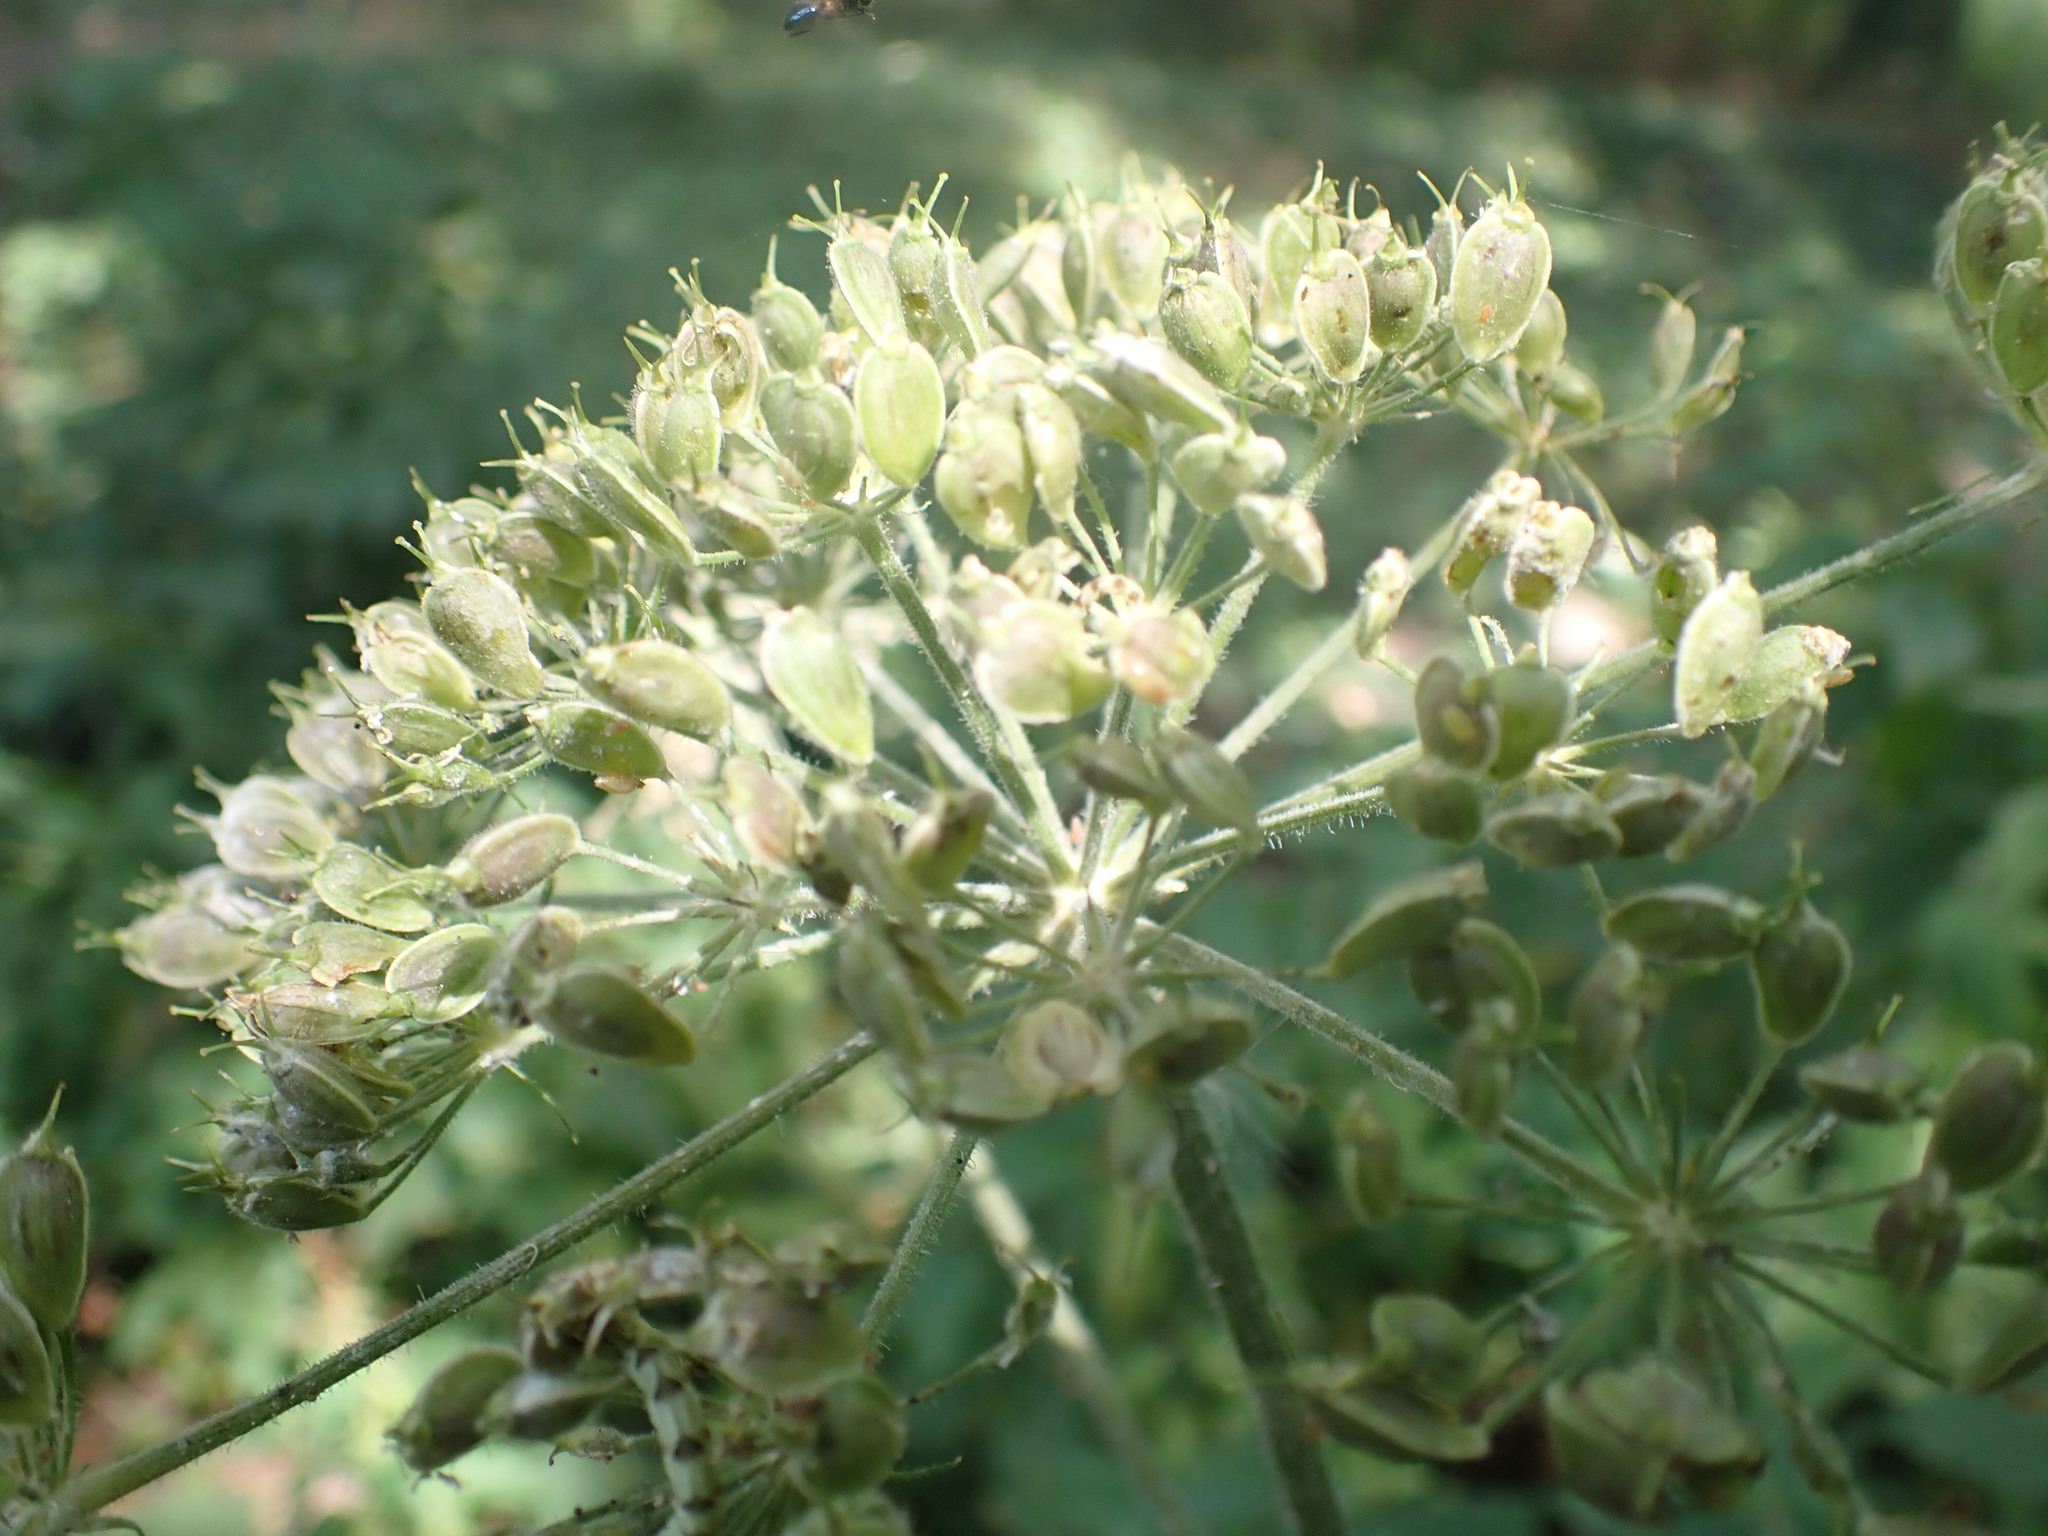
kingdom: Plantae
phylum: Tracheophyta
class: Magnoliopsida
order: Apiales
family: Apiaceae
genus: Heracleum
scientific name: Heracleum sphondylium
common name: Hogweed
